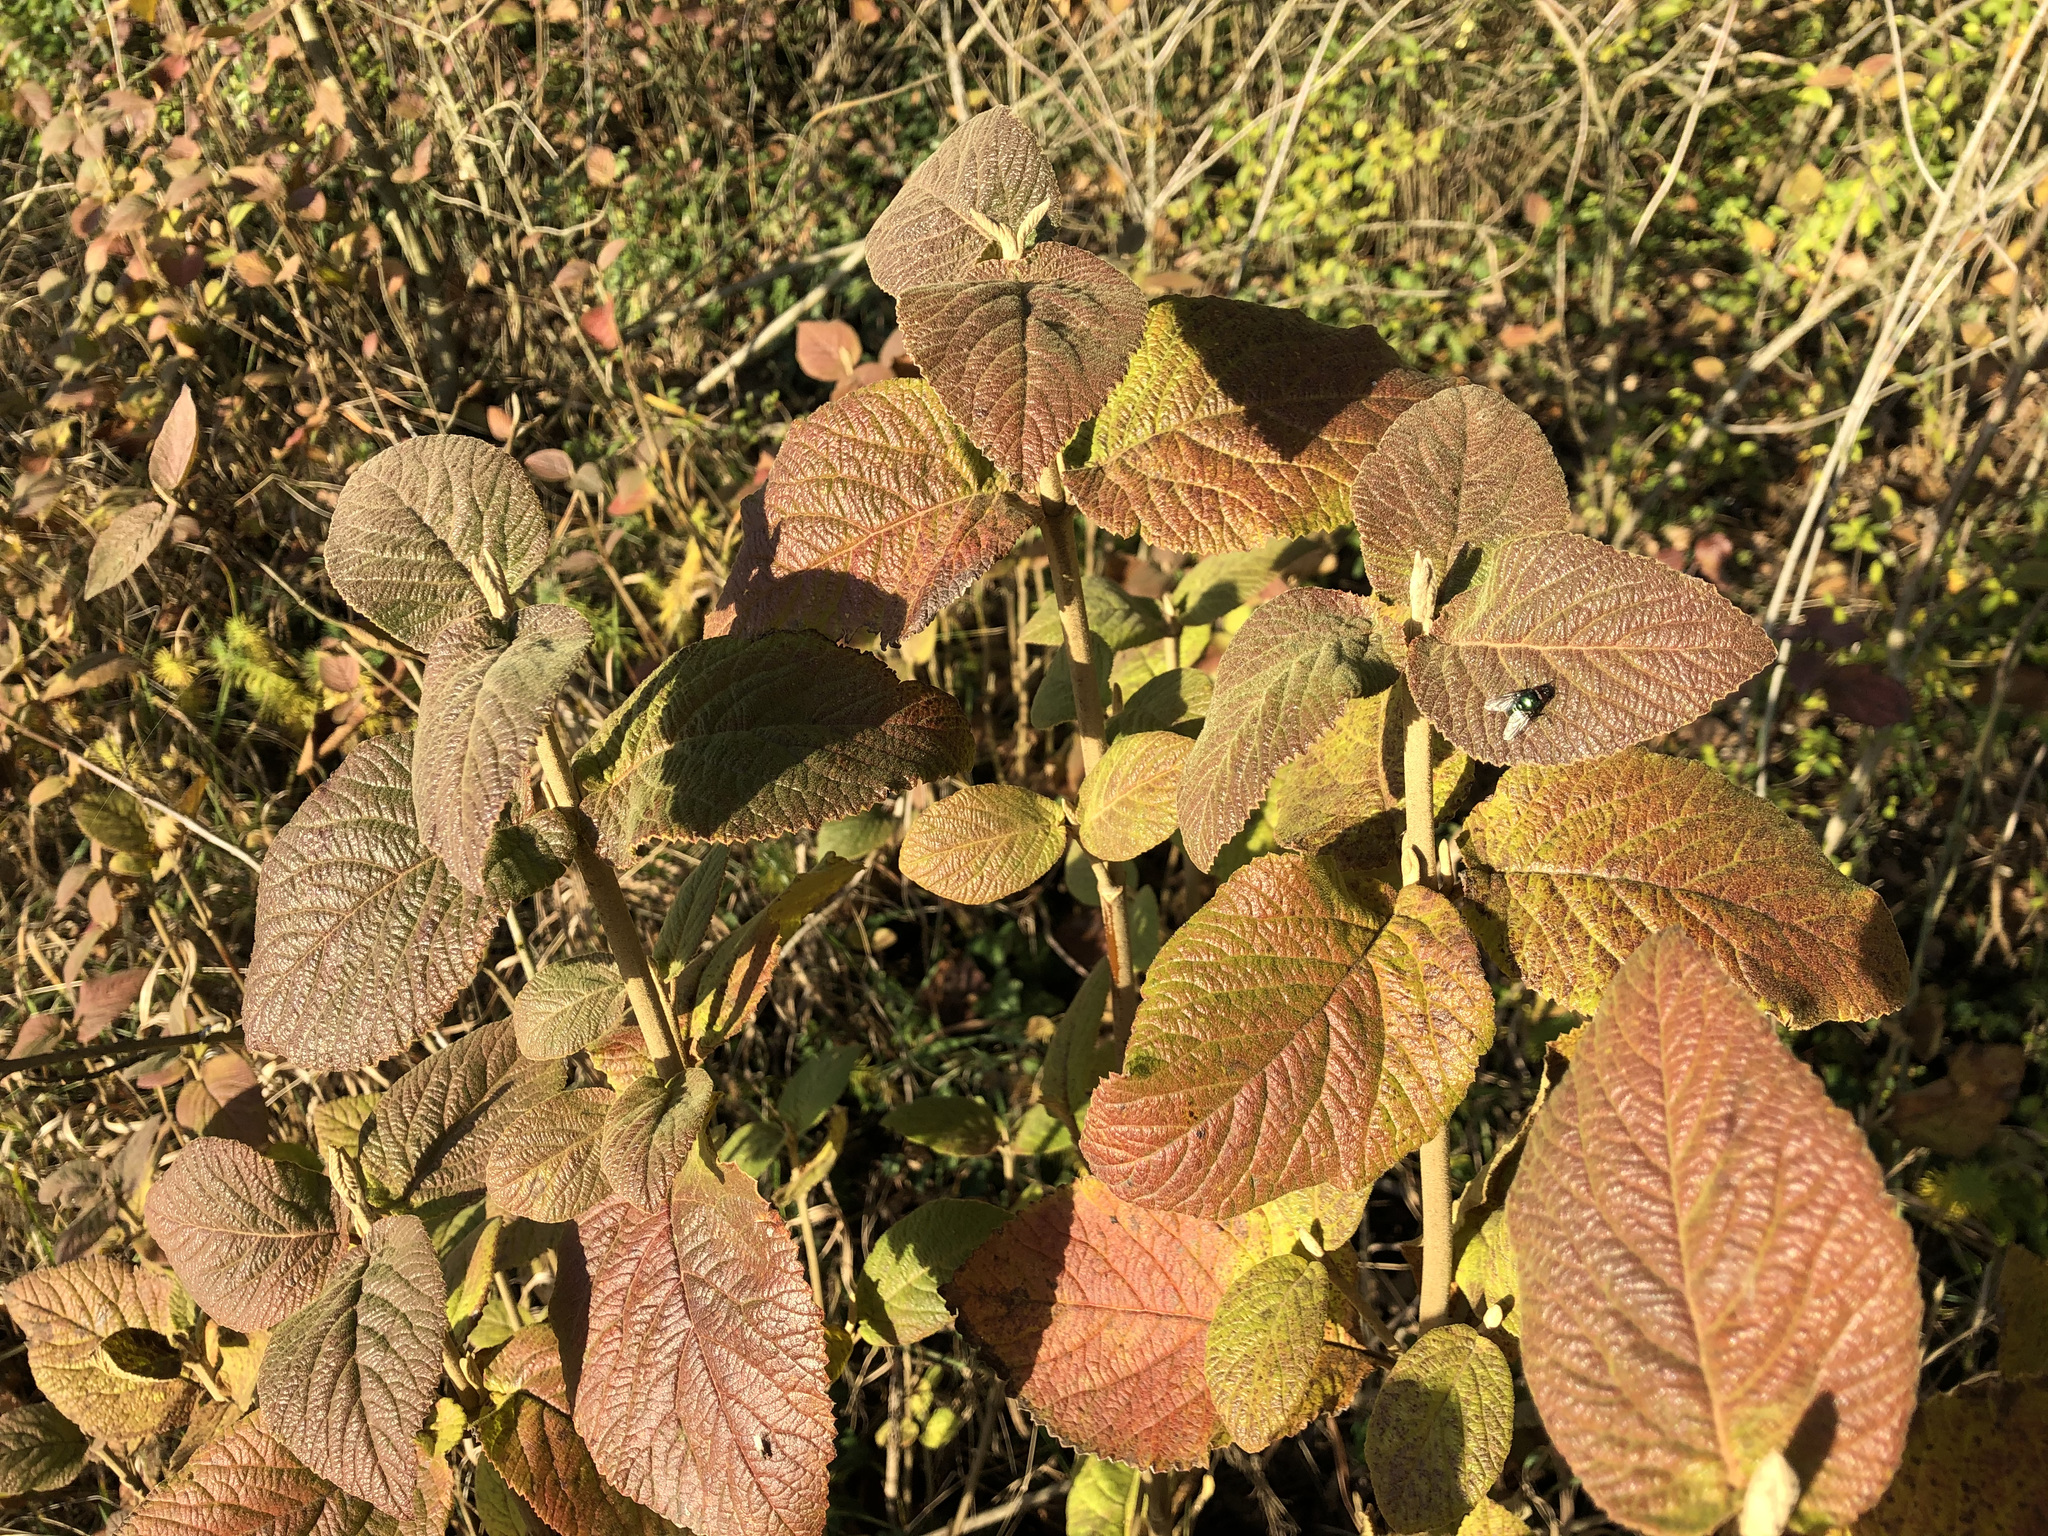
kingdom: Plantae
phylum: Tracheophyta
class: Magnoliopsida
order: Dipsacales
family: Viburnaceae
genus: Viburnum
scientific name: Viburnum lantana
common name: Wayfaring tree
